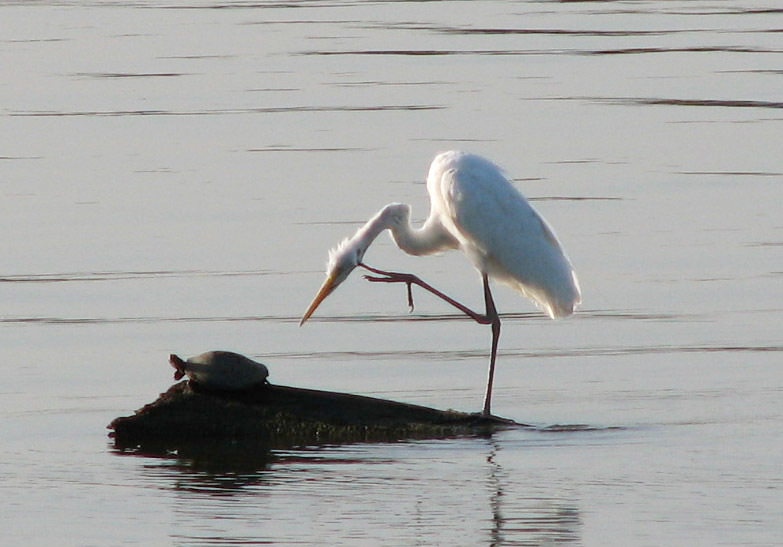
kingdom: Animalia
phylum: Chordata
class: Aves
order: Pelecaniformes
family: Ardeidae
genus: Ardea
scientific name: Ardea alba
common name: Great egret
